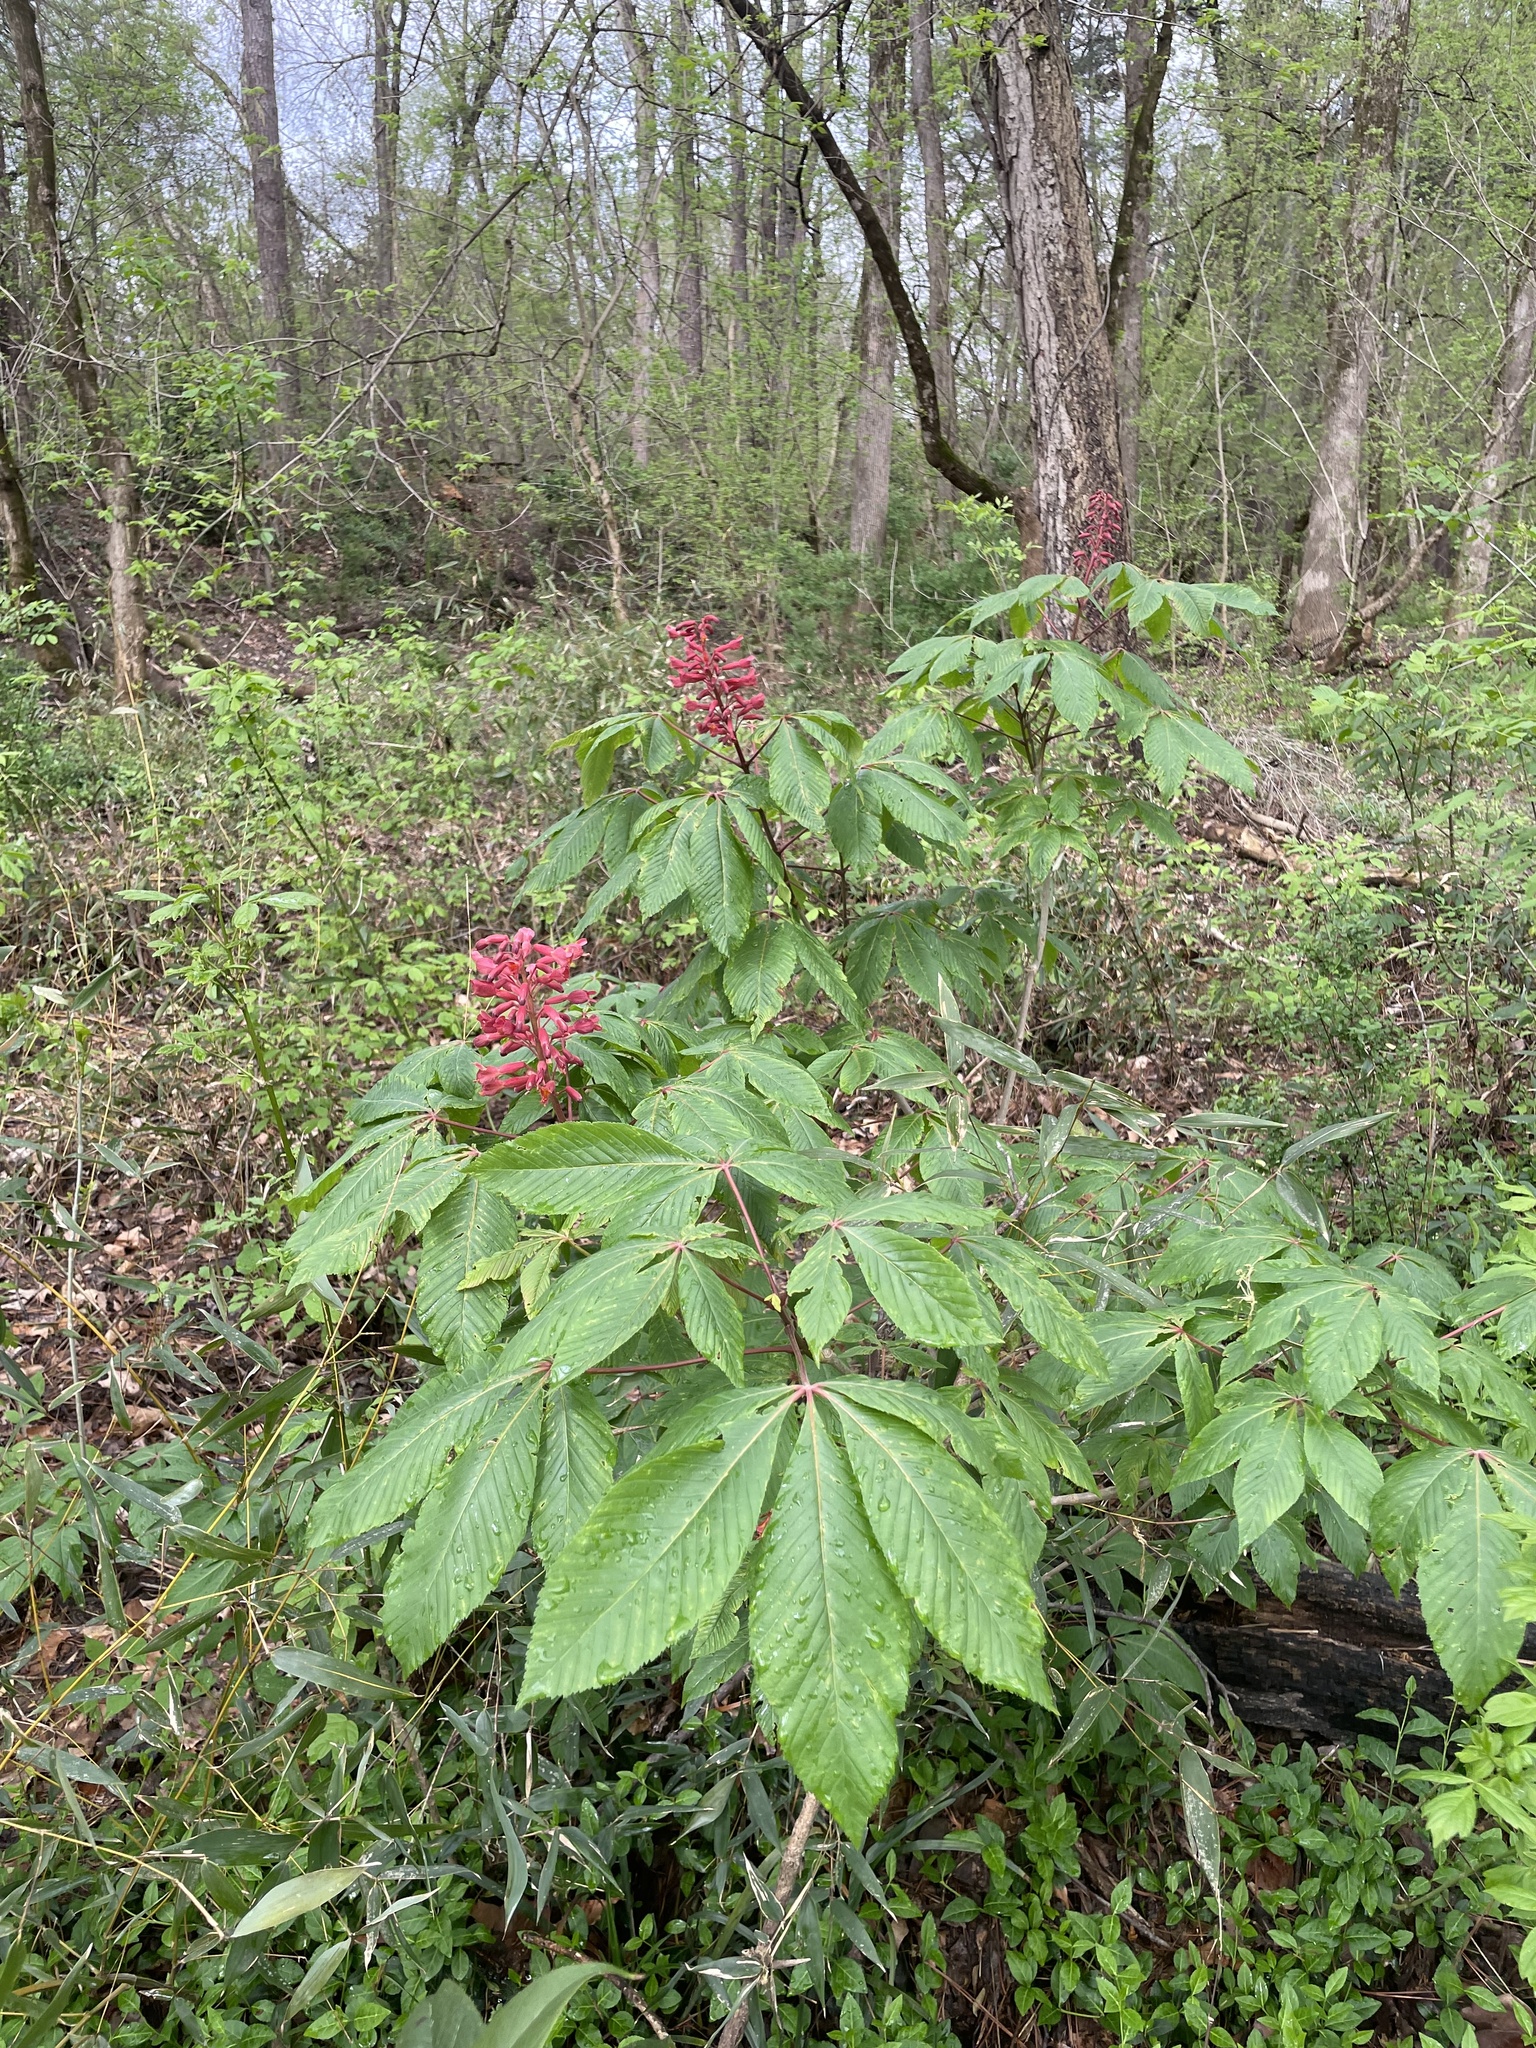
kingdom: Plantae
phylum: Tracheophyta
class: Magnoliopsida
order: Sapindales
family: Sapindaceae
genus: Aesculus
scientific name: Aesculus pavia
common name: Red buckeye
